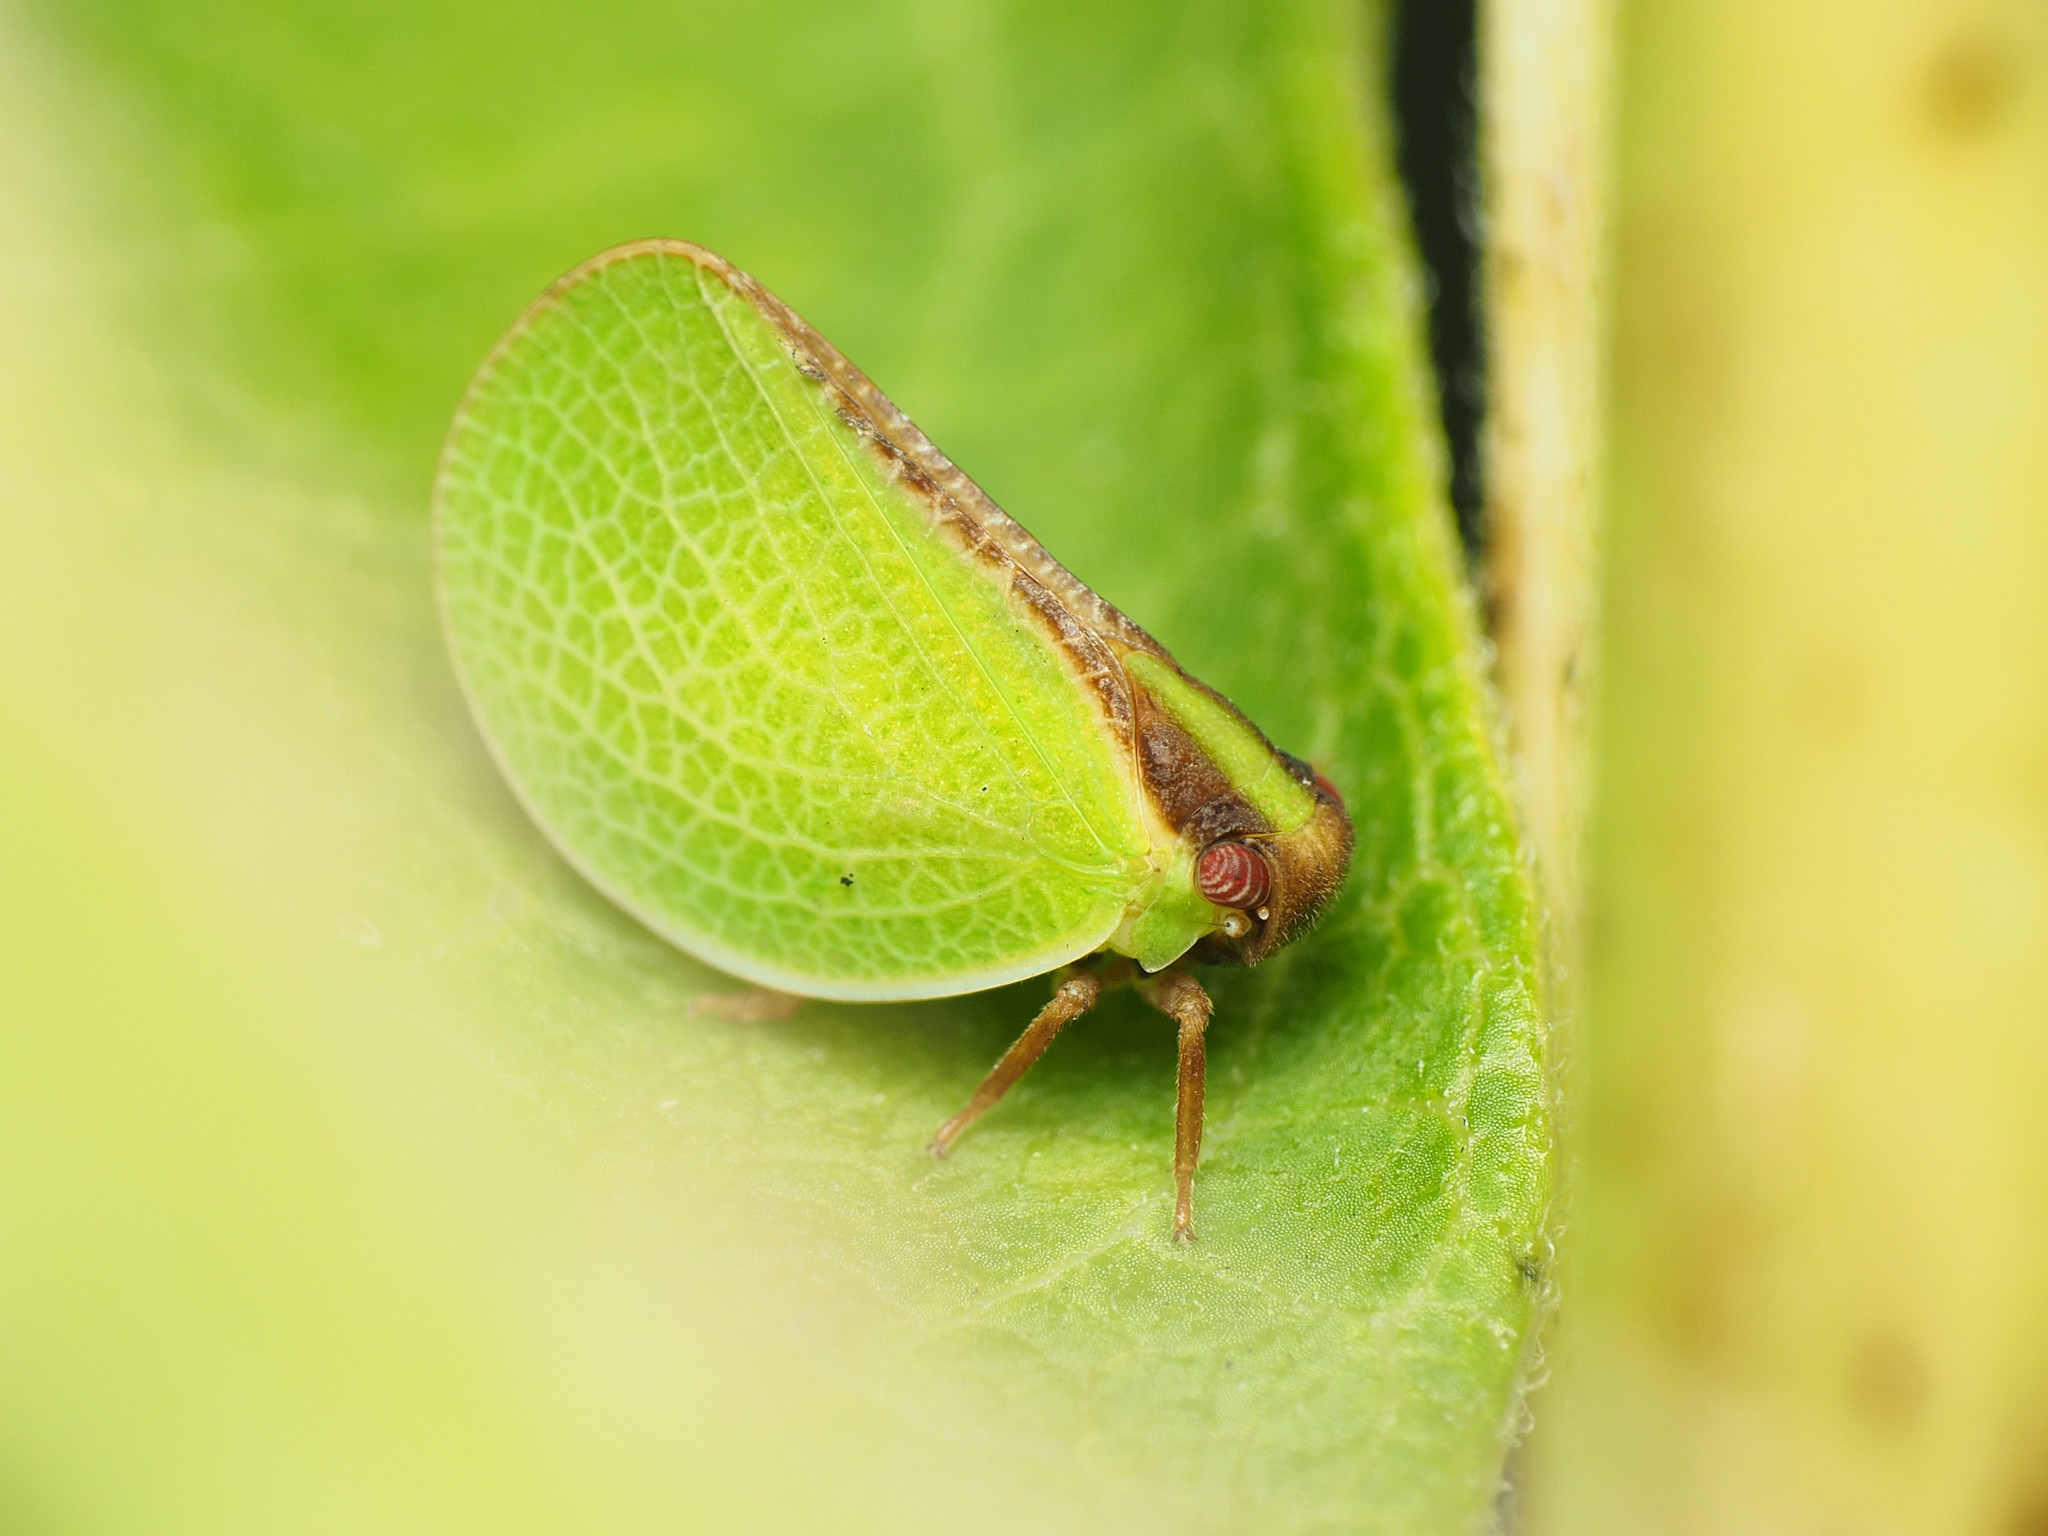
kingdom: Animalia
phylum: Arthropoda
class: Insecta
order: Hemiptera
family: Acanaloniidae
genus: Acanalonia
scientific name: Acanalonia bivittata
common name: Two-striped planthopper
